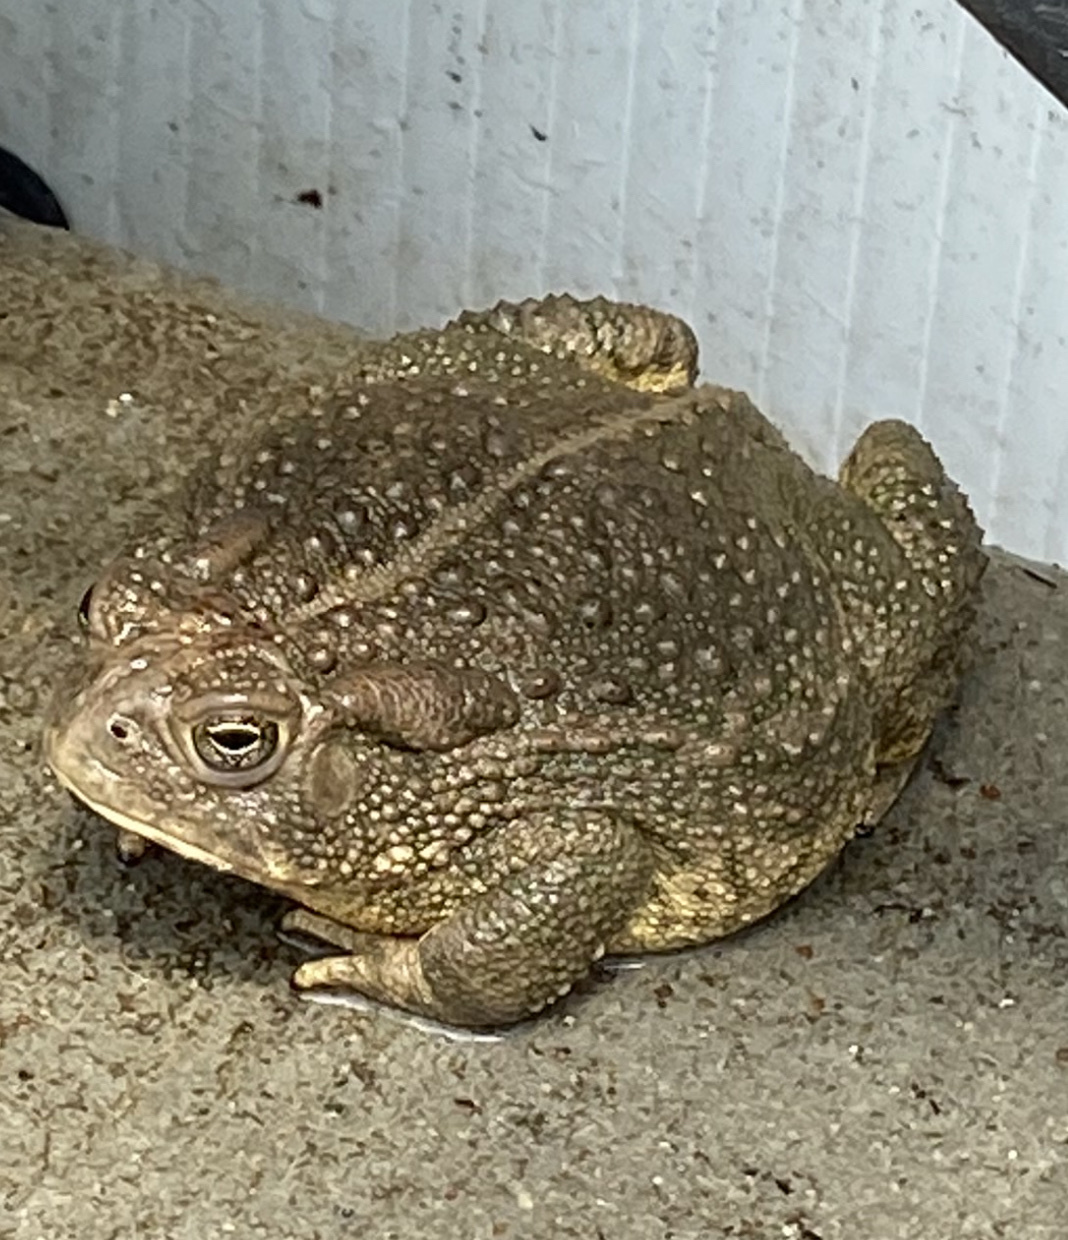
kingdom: Animalia
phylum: Chordata
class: Amphibia
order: Anura
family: Bufonidae
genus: Anaxyrus
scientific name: Anaxyrus woodhousii
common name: Woodhouse's toad
